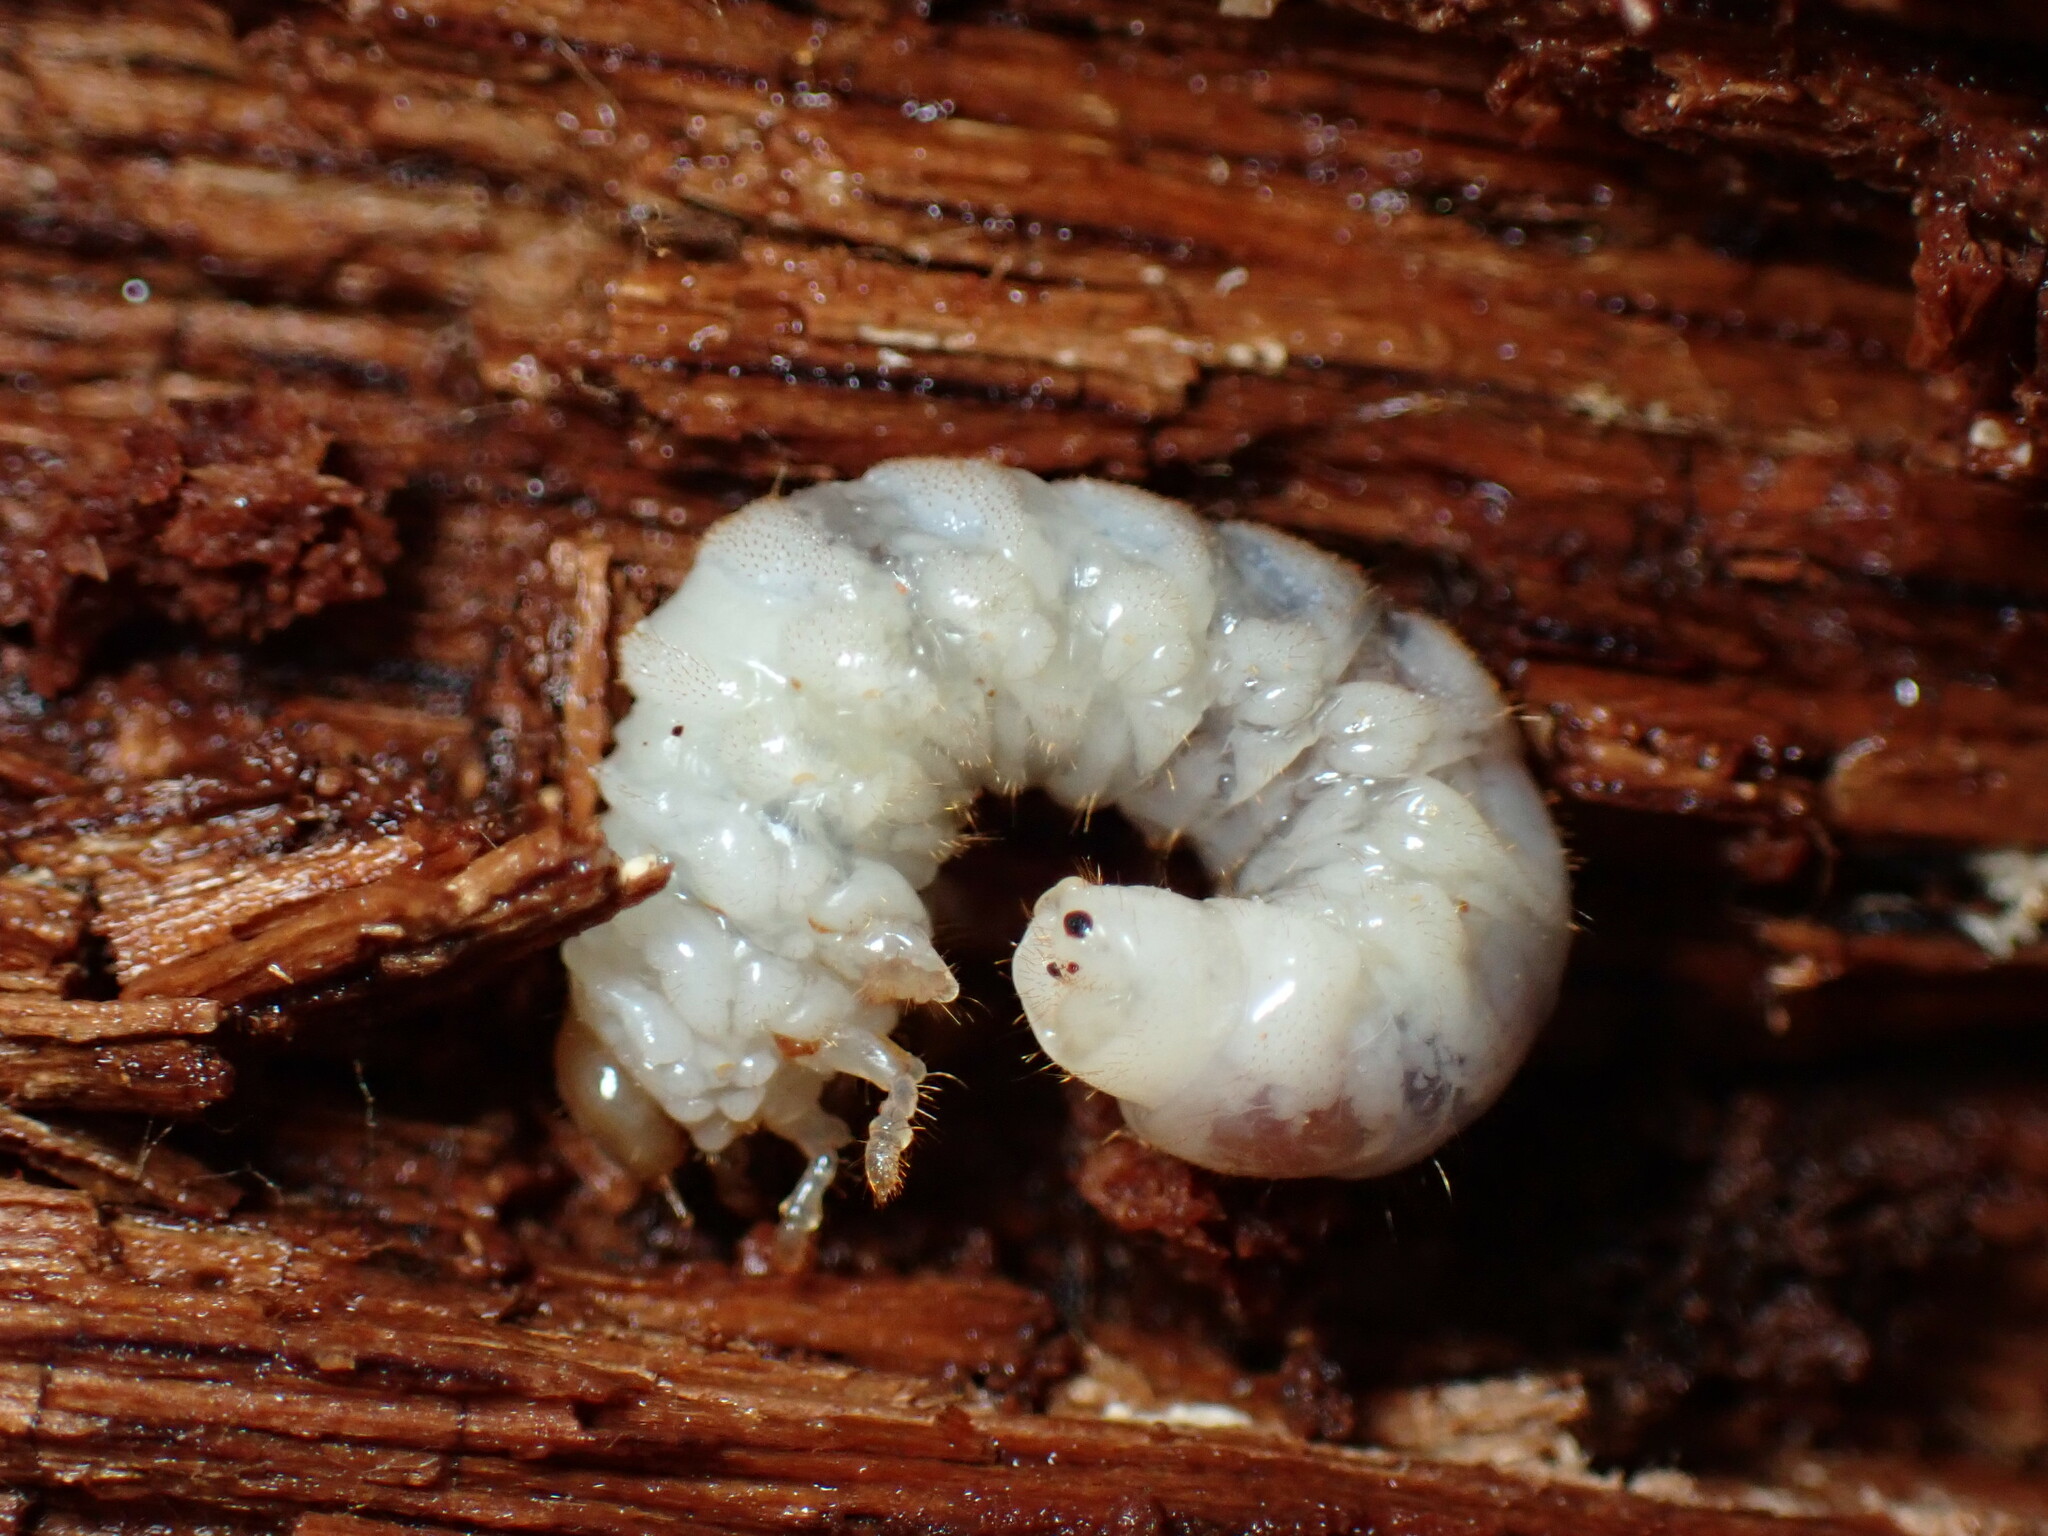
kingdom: Animalia
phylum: Arthropoda
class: Insecta
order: Coleoptera
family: Lucanidae
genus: Ceruchus
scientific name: Ceruchus piceus
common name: Red-rot decay stag beetle
